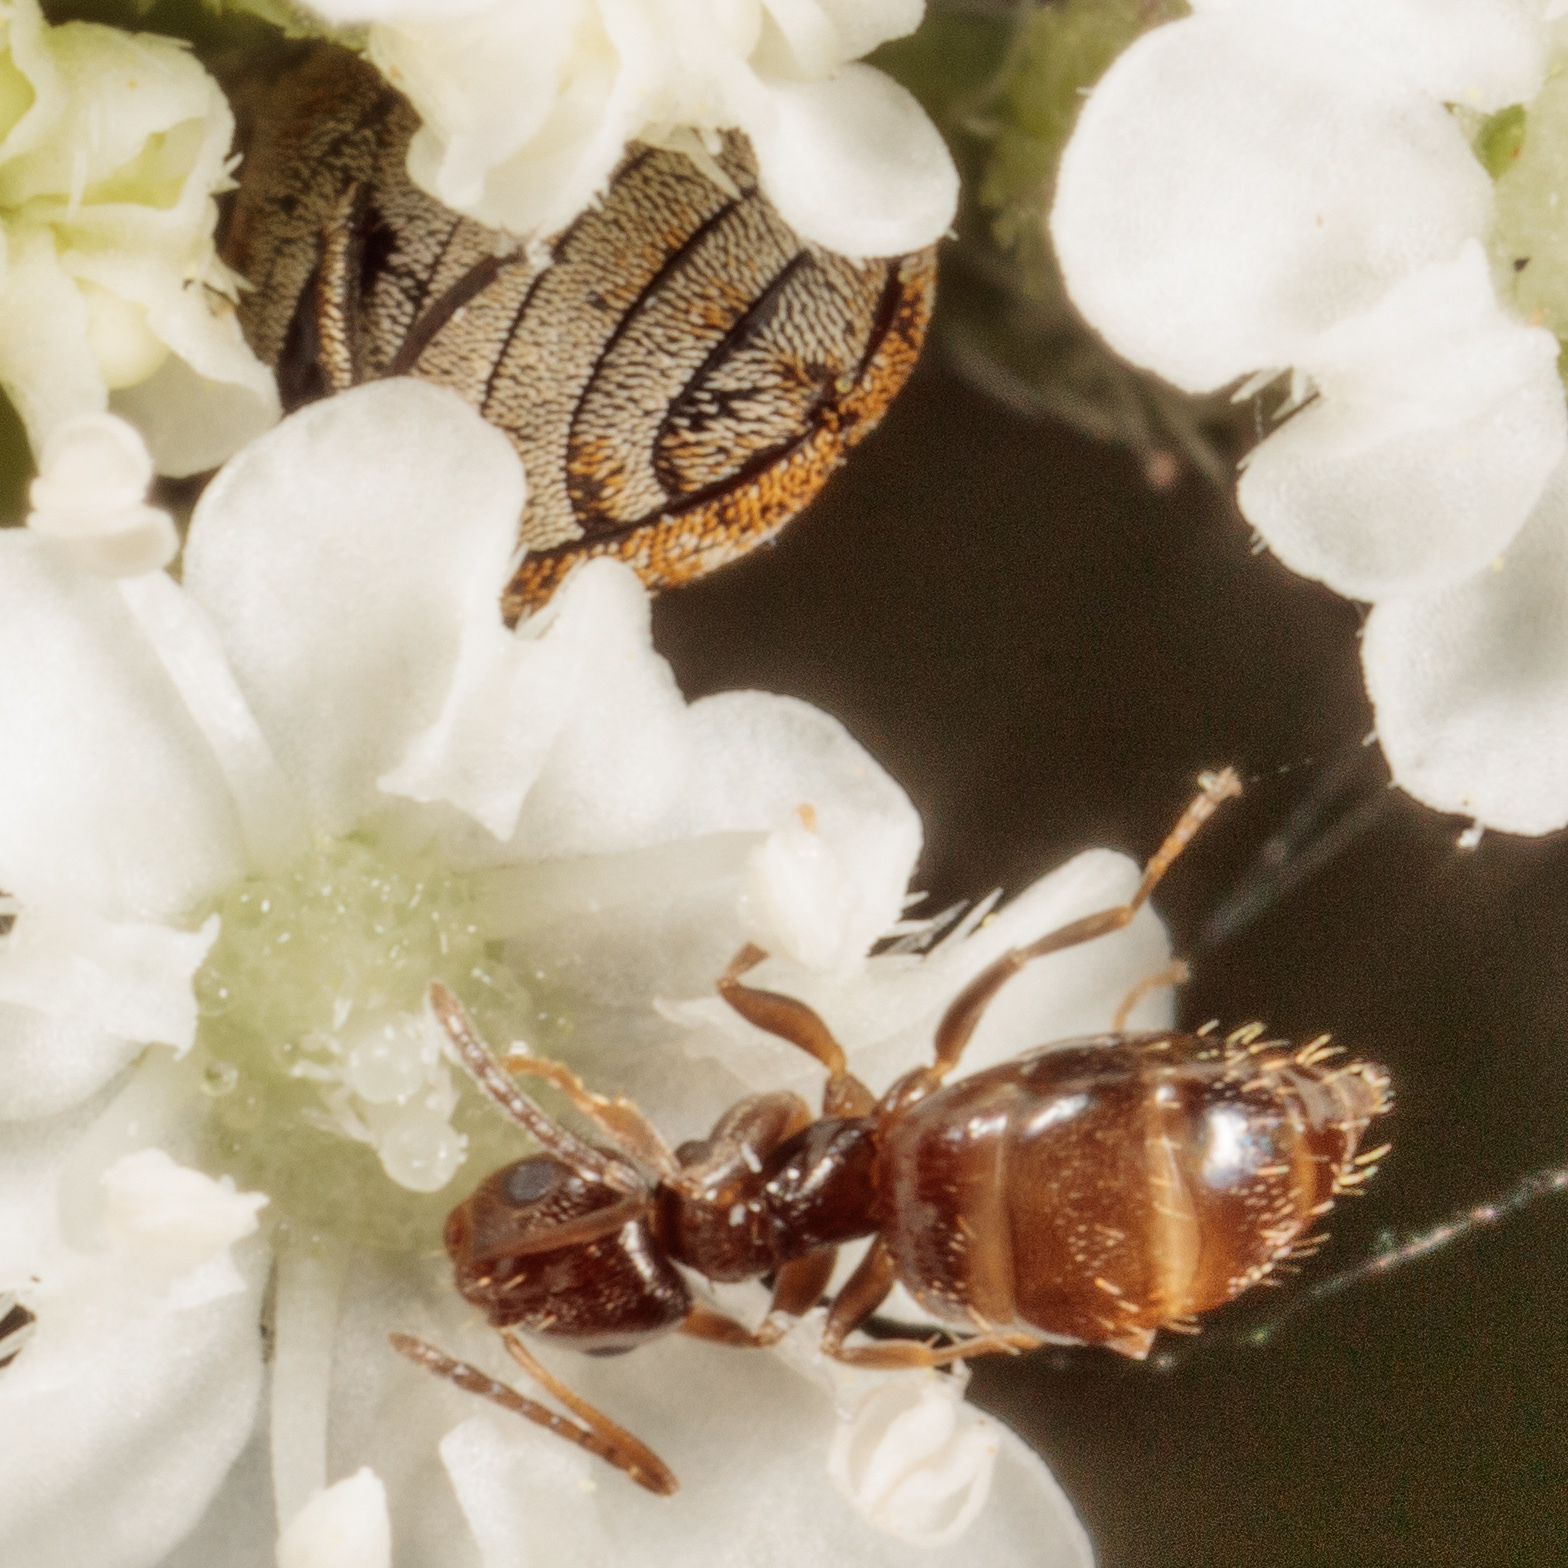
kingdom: Animalia
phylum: Arthropoda
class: Insecta
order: Hymenoptera
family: Formicidae
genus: Brachymyrmex
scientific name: Brachymyrmex patagonicus
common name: Dark rover ant
